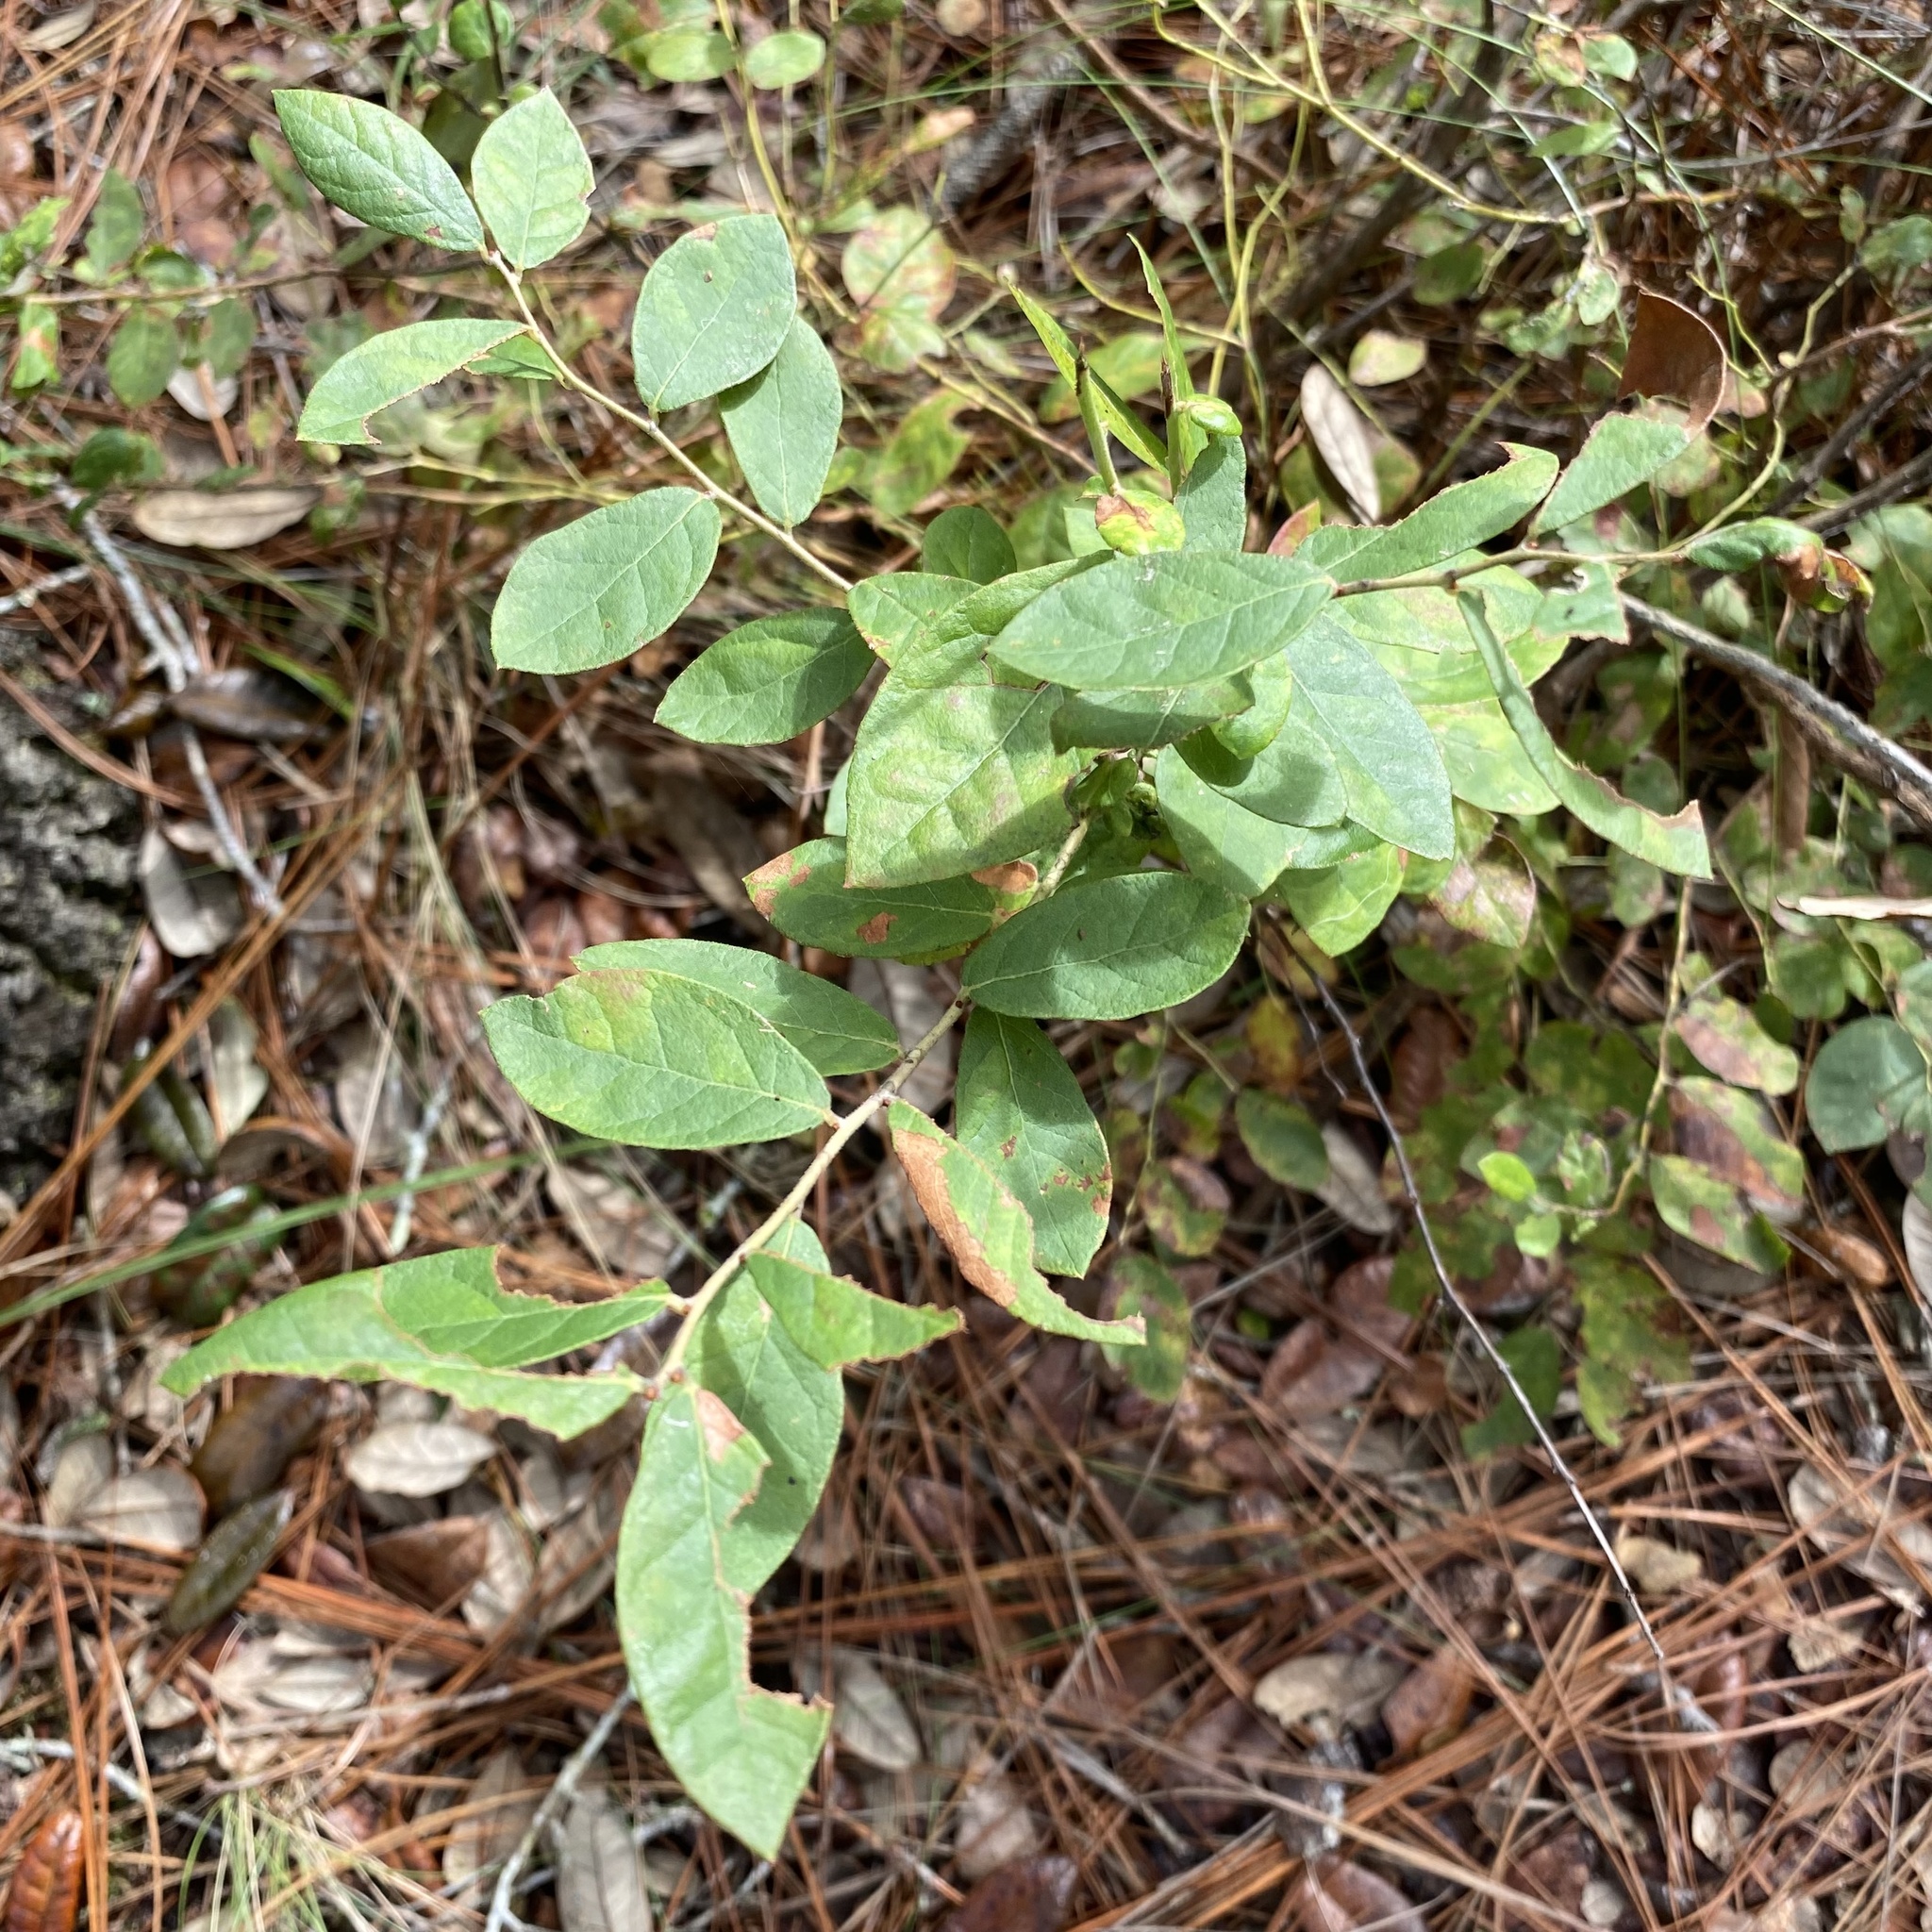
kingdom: Plantae
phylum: Tracheophyta
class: Magnoliopsida
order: Ericales
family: Ericaceae
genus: Vaccinium
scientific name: Vaccinium stamineum
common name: Deerberry
